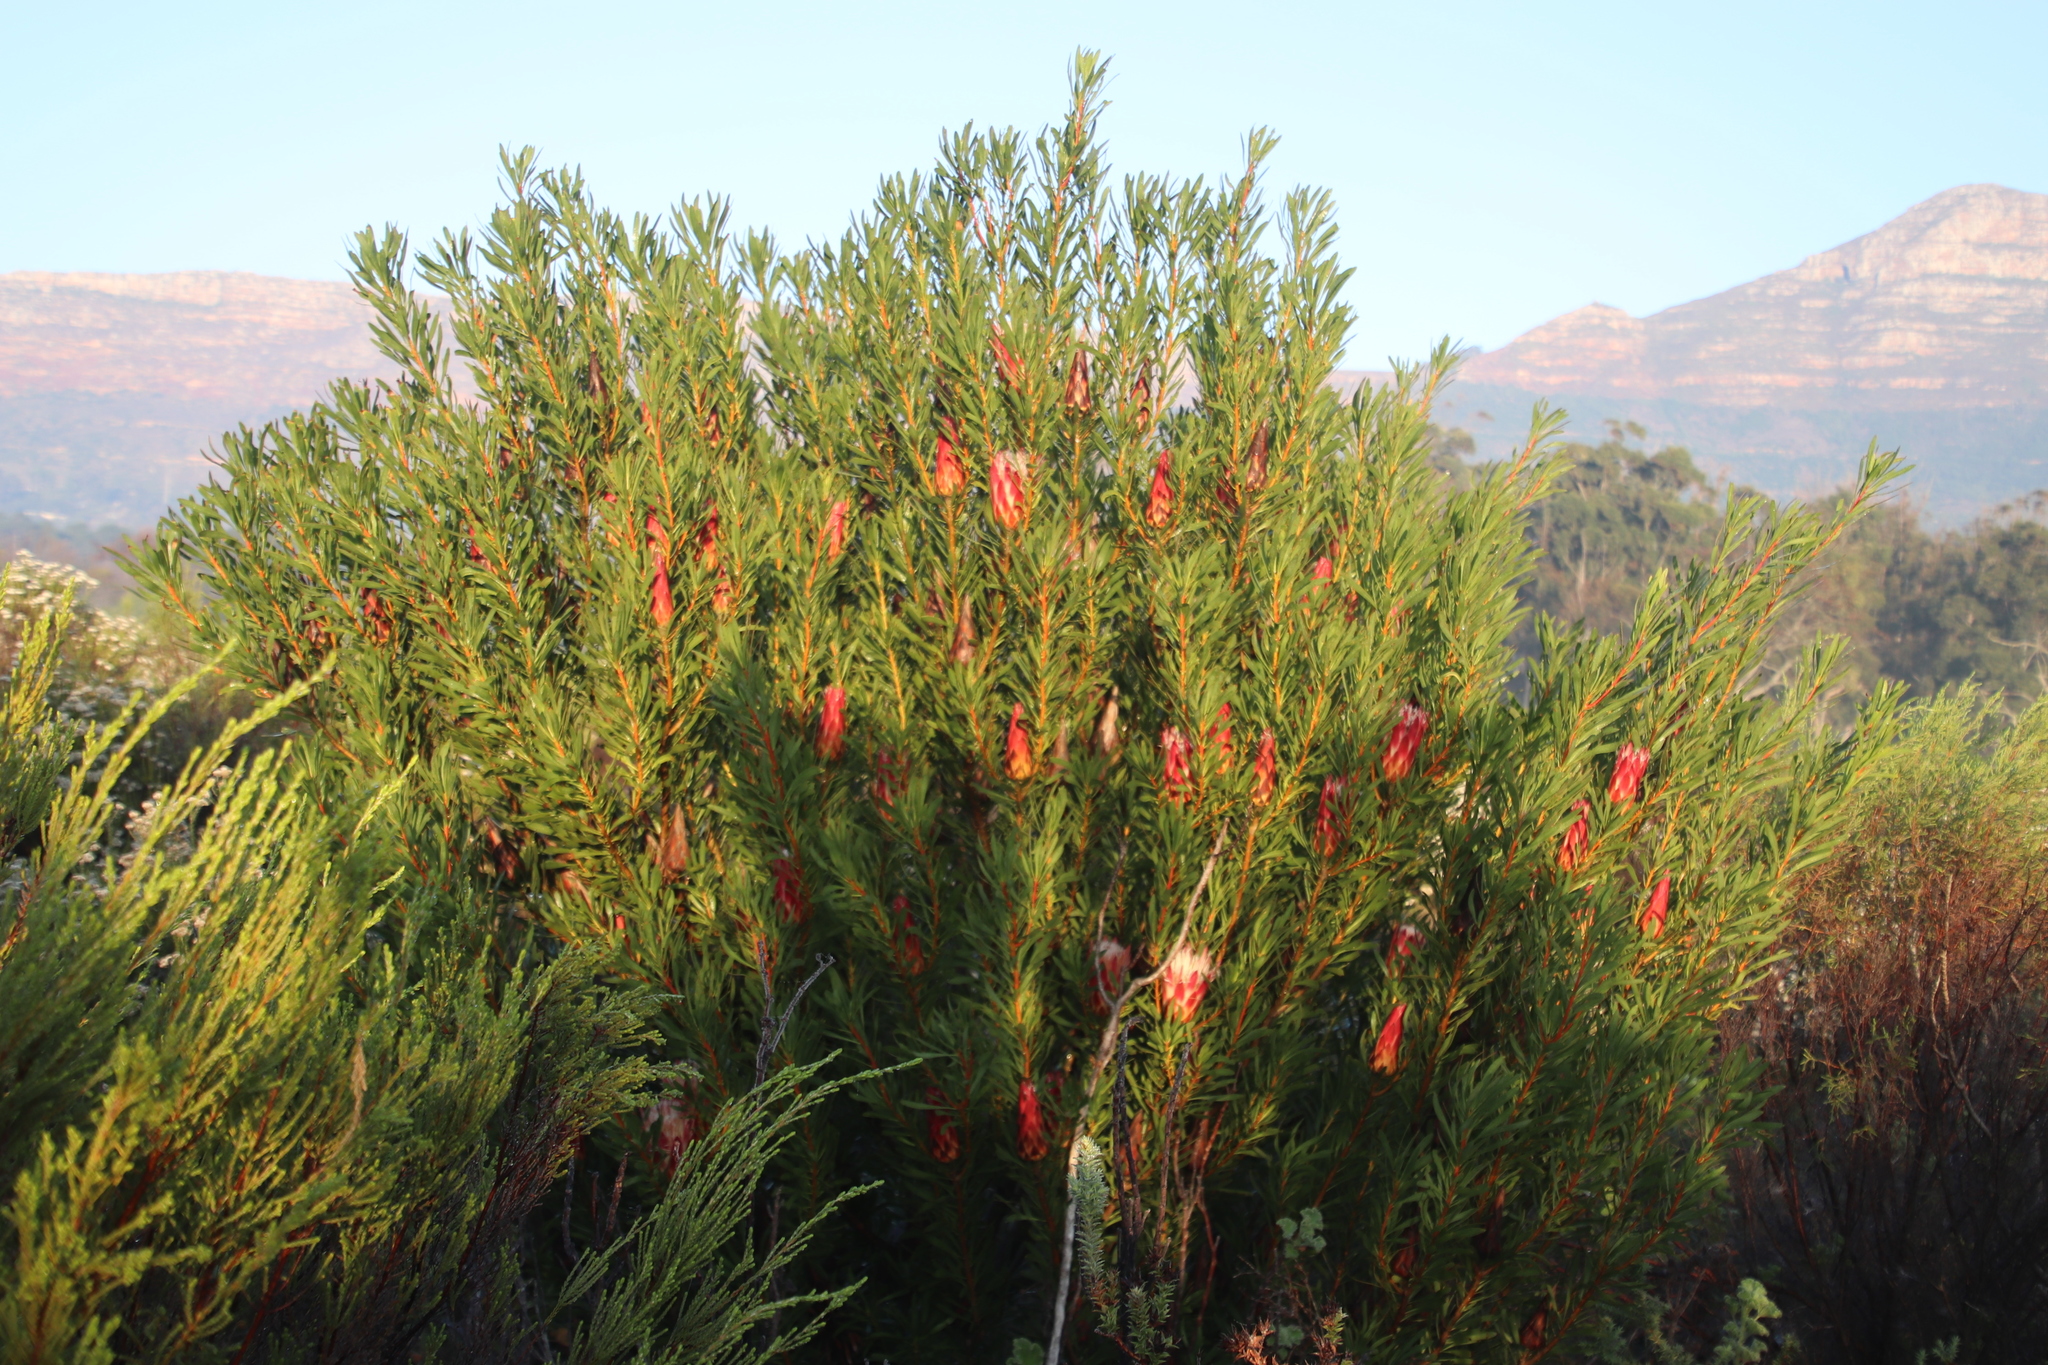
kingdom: Plantae
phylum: Tracheophyta
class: Magnoliopsida
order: Proteales
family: Proteaceae
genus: Protea
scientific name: Protea repens
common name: Sugarbush
